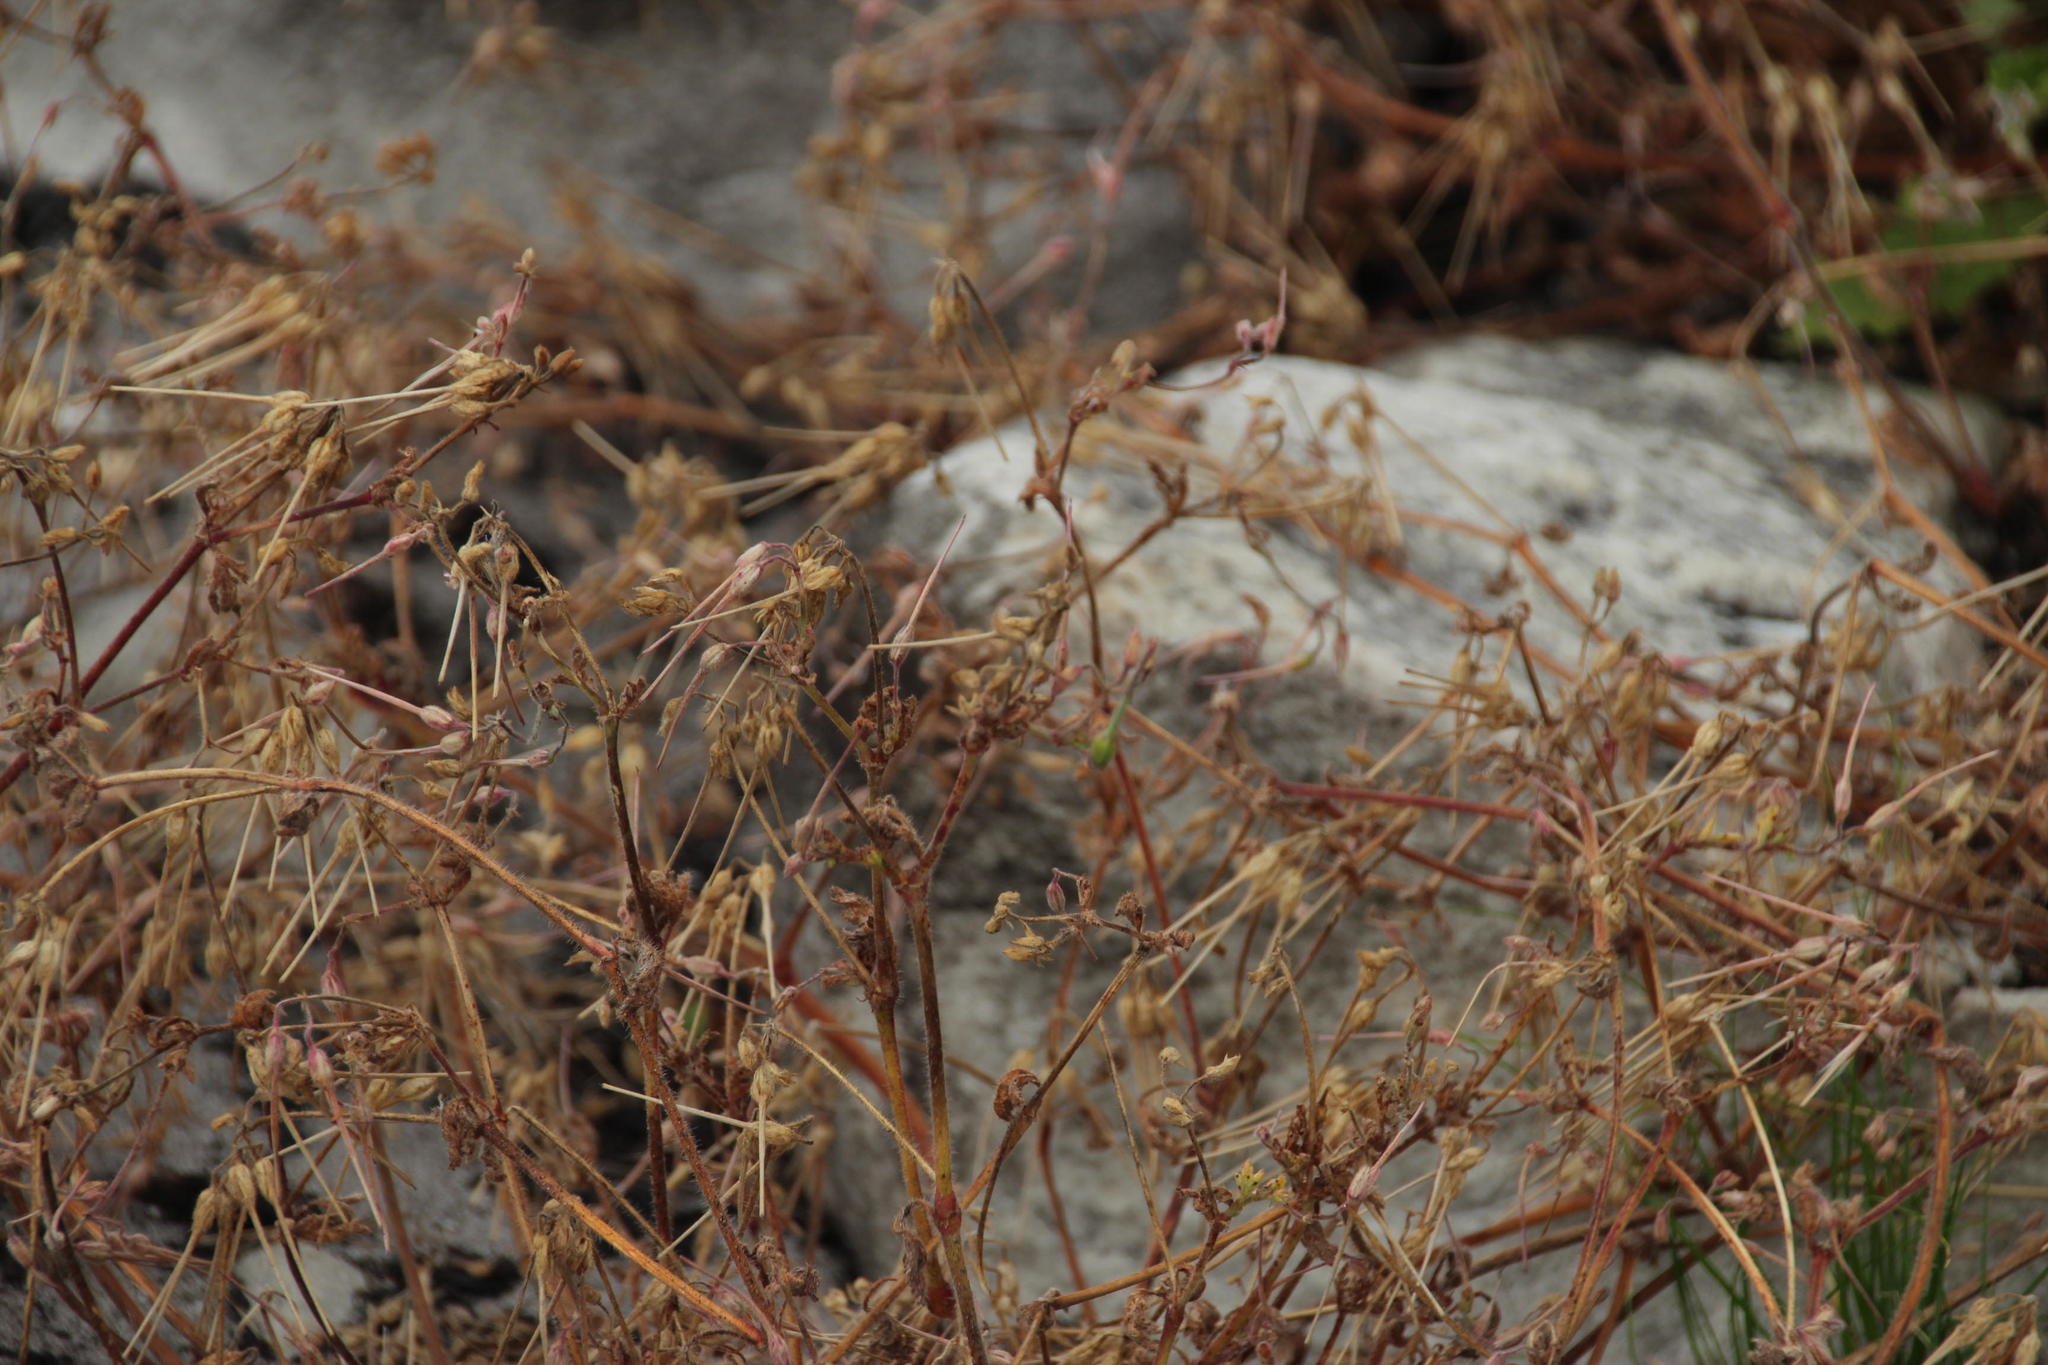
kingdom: Plantae
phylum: Tracheophyta
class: Magnoliopsida
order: Geraniales
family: Geraniaceae
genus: Pelargonium
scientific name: Pelargonium althaeoides
